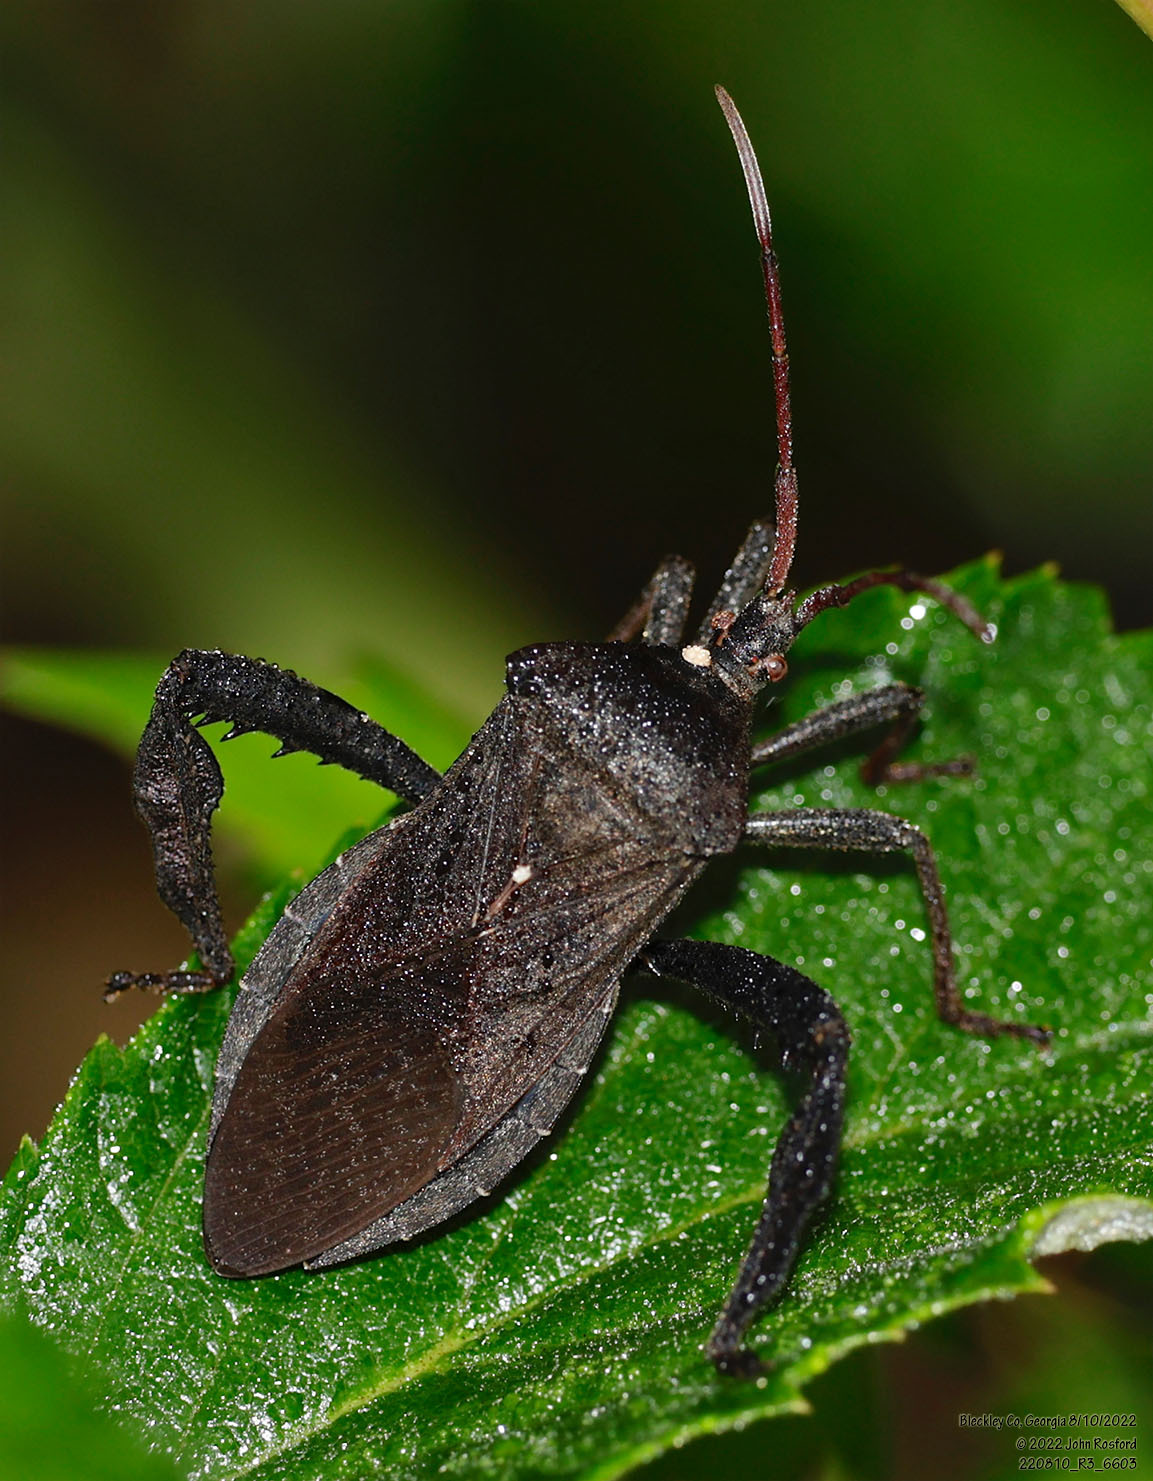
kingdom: Animalia
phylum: Arthropoda
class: Insecta
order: Hemiptera
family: Coreidae
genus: Acanthocephala
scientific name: Acanthocephala femorata
